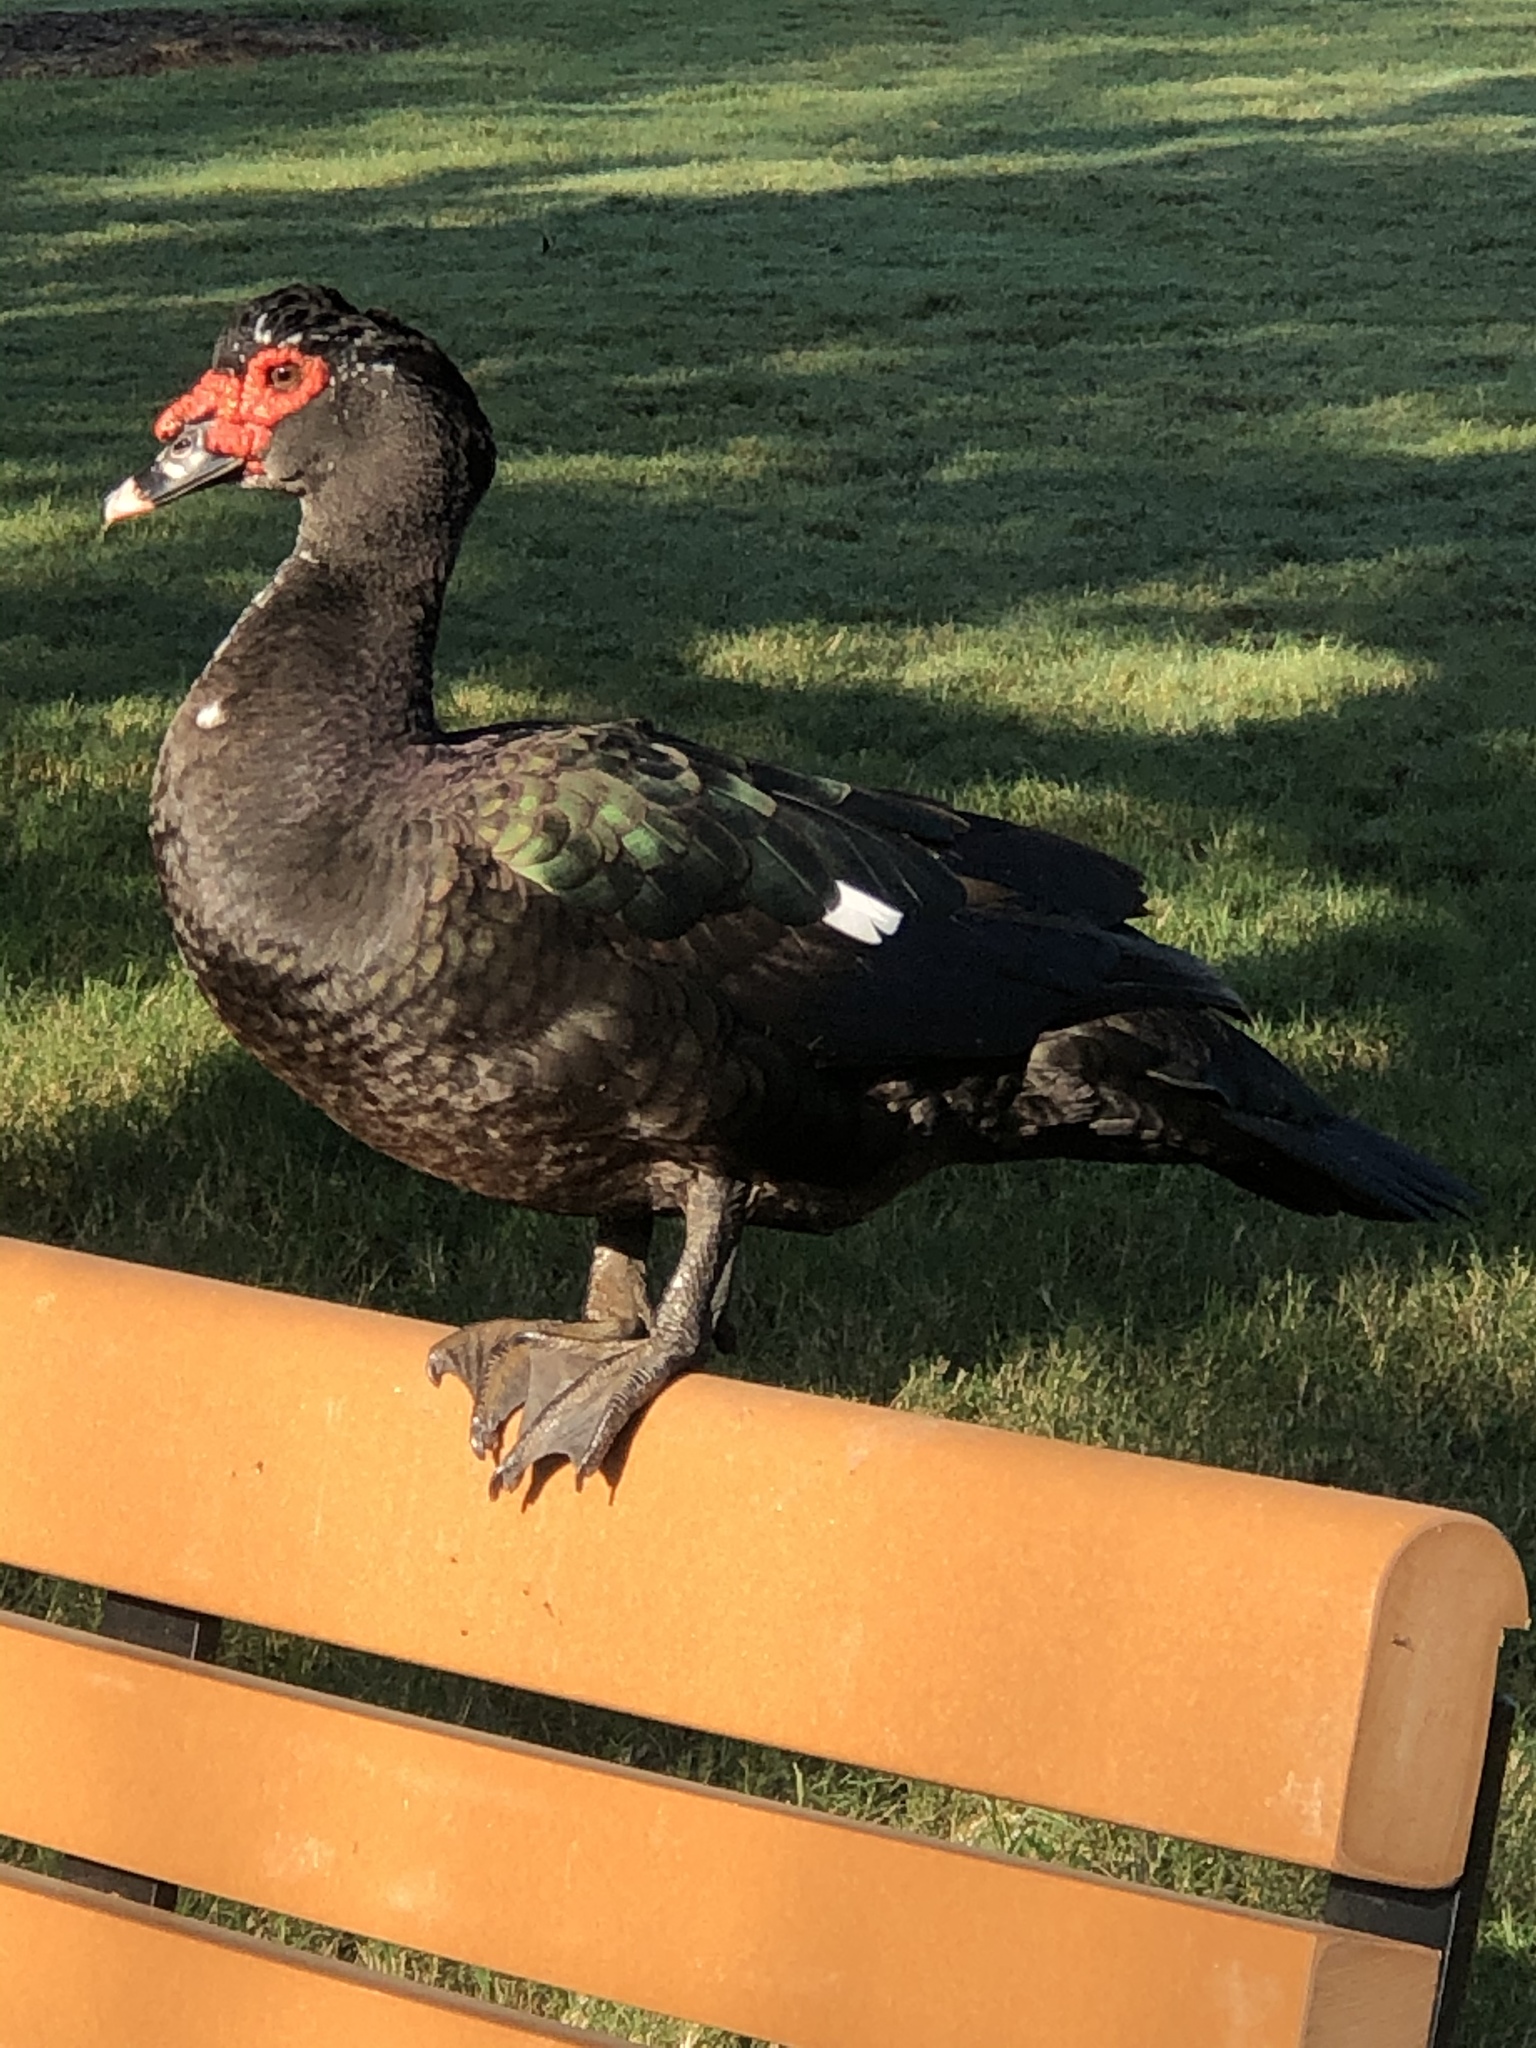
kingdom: Animalia
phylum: Chordata
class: Aves
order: Anseriformes
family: Anatidae
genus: Cairina
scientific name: Cairina moschata
